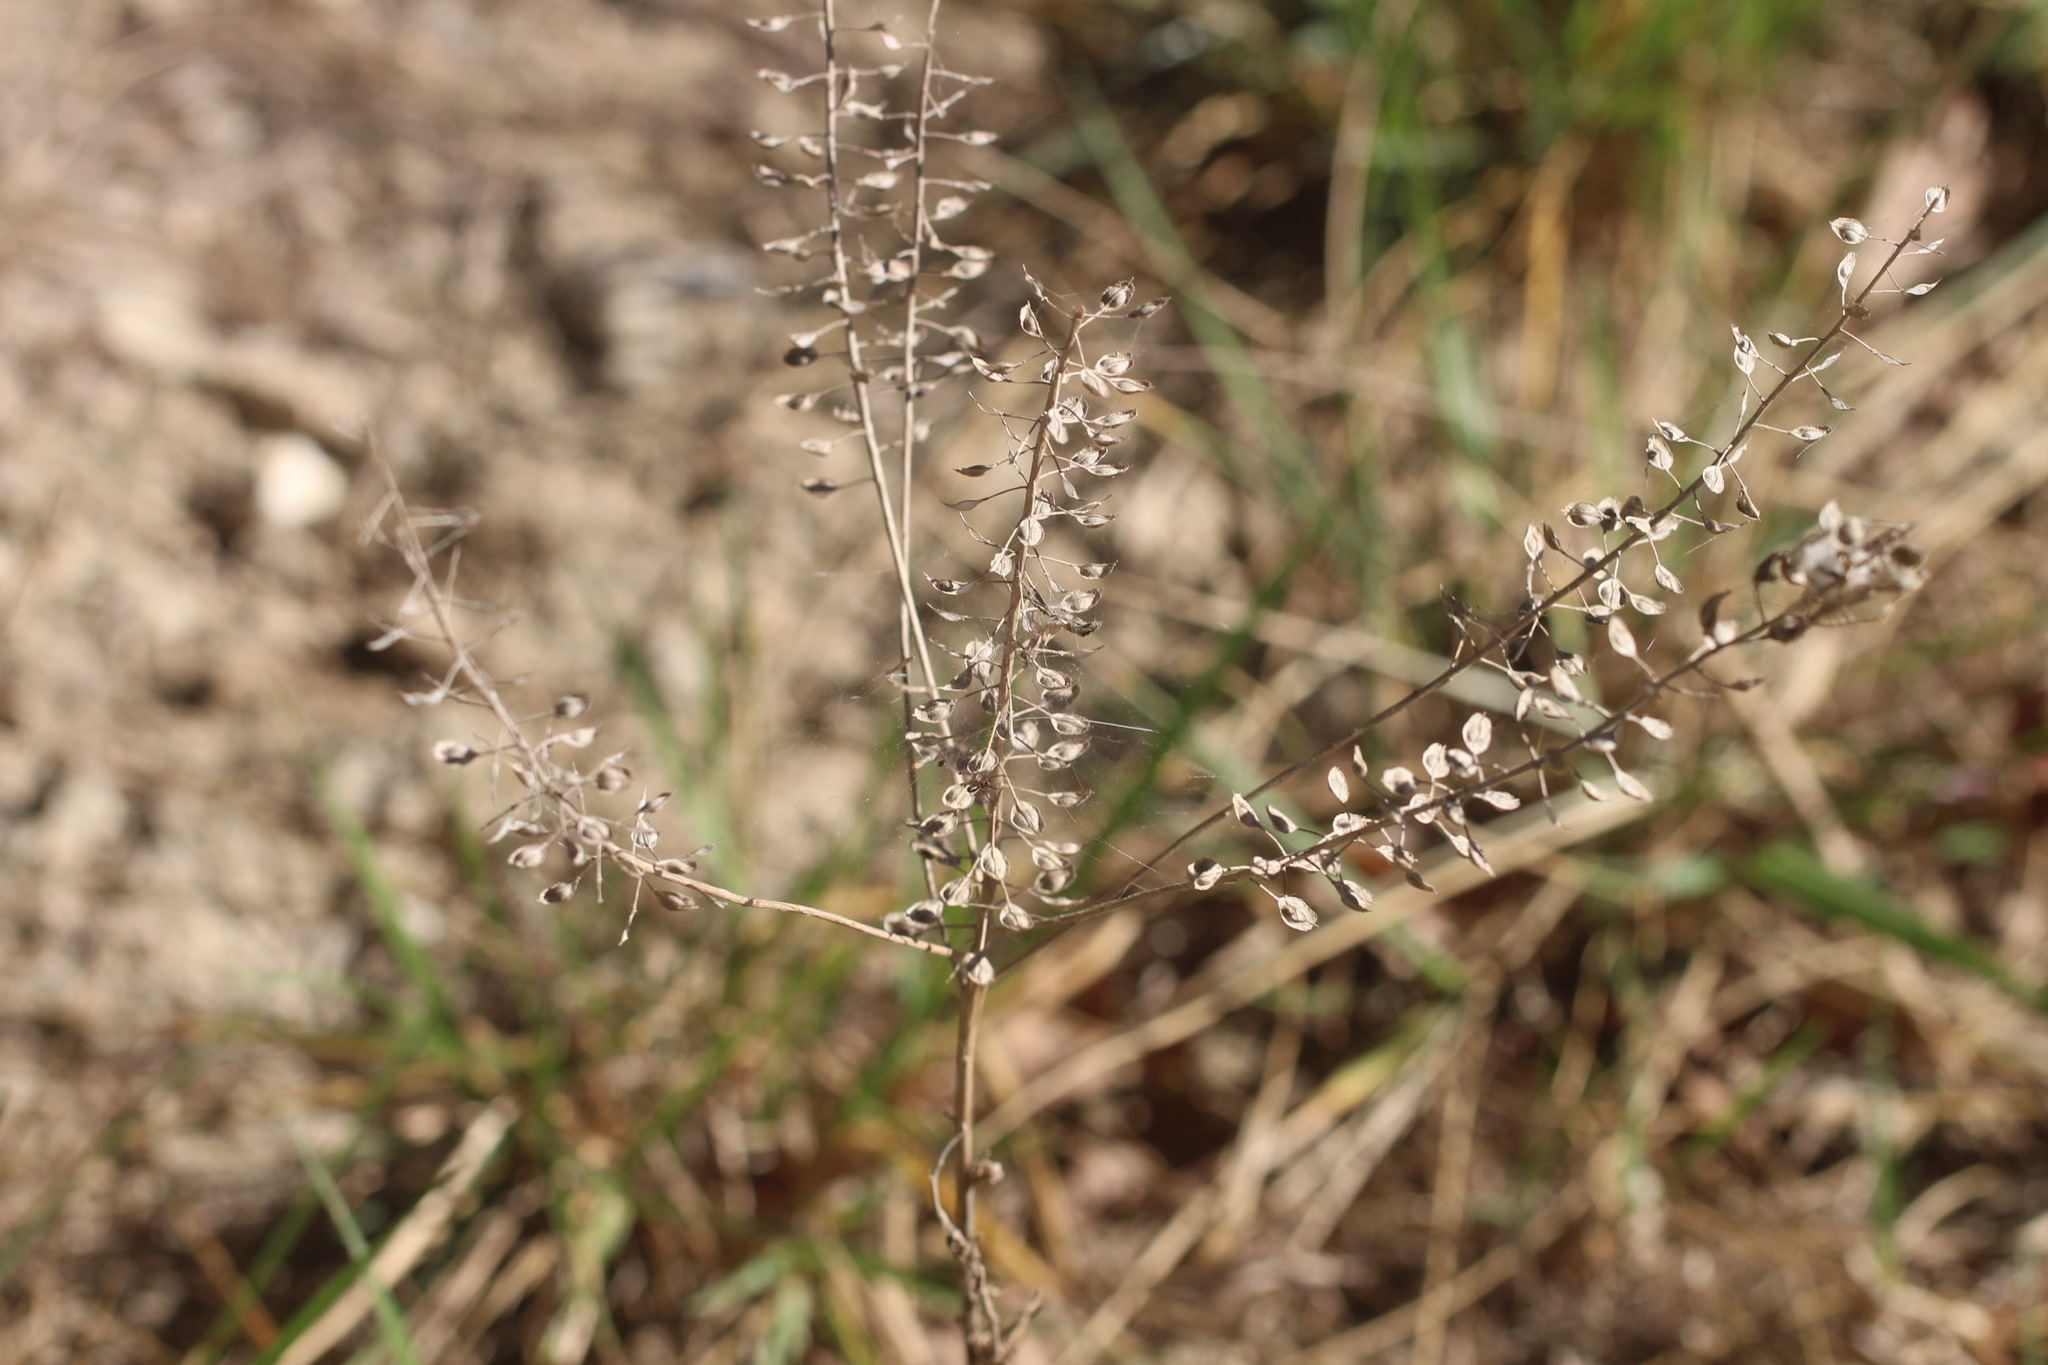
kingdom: Plantae
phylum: Tracheophyta
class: Magnoliopsida
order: Brassicales
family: Brassicaceae
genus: Lepidium
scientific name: Lepidium campestre
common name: Field pepperwort
